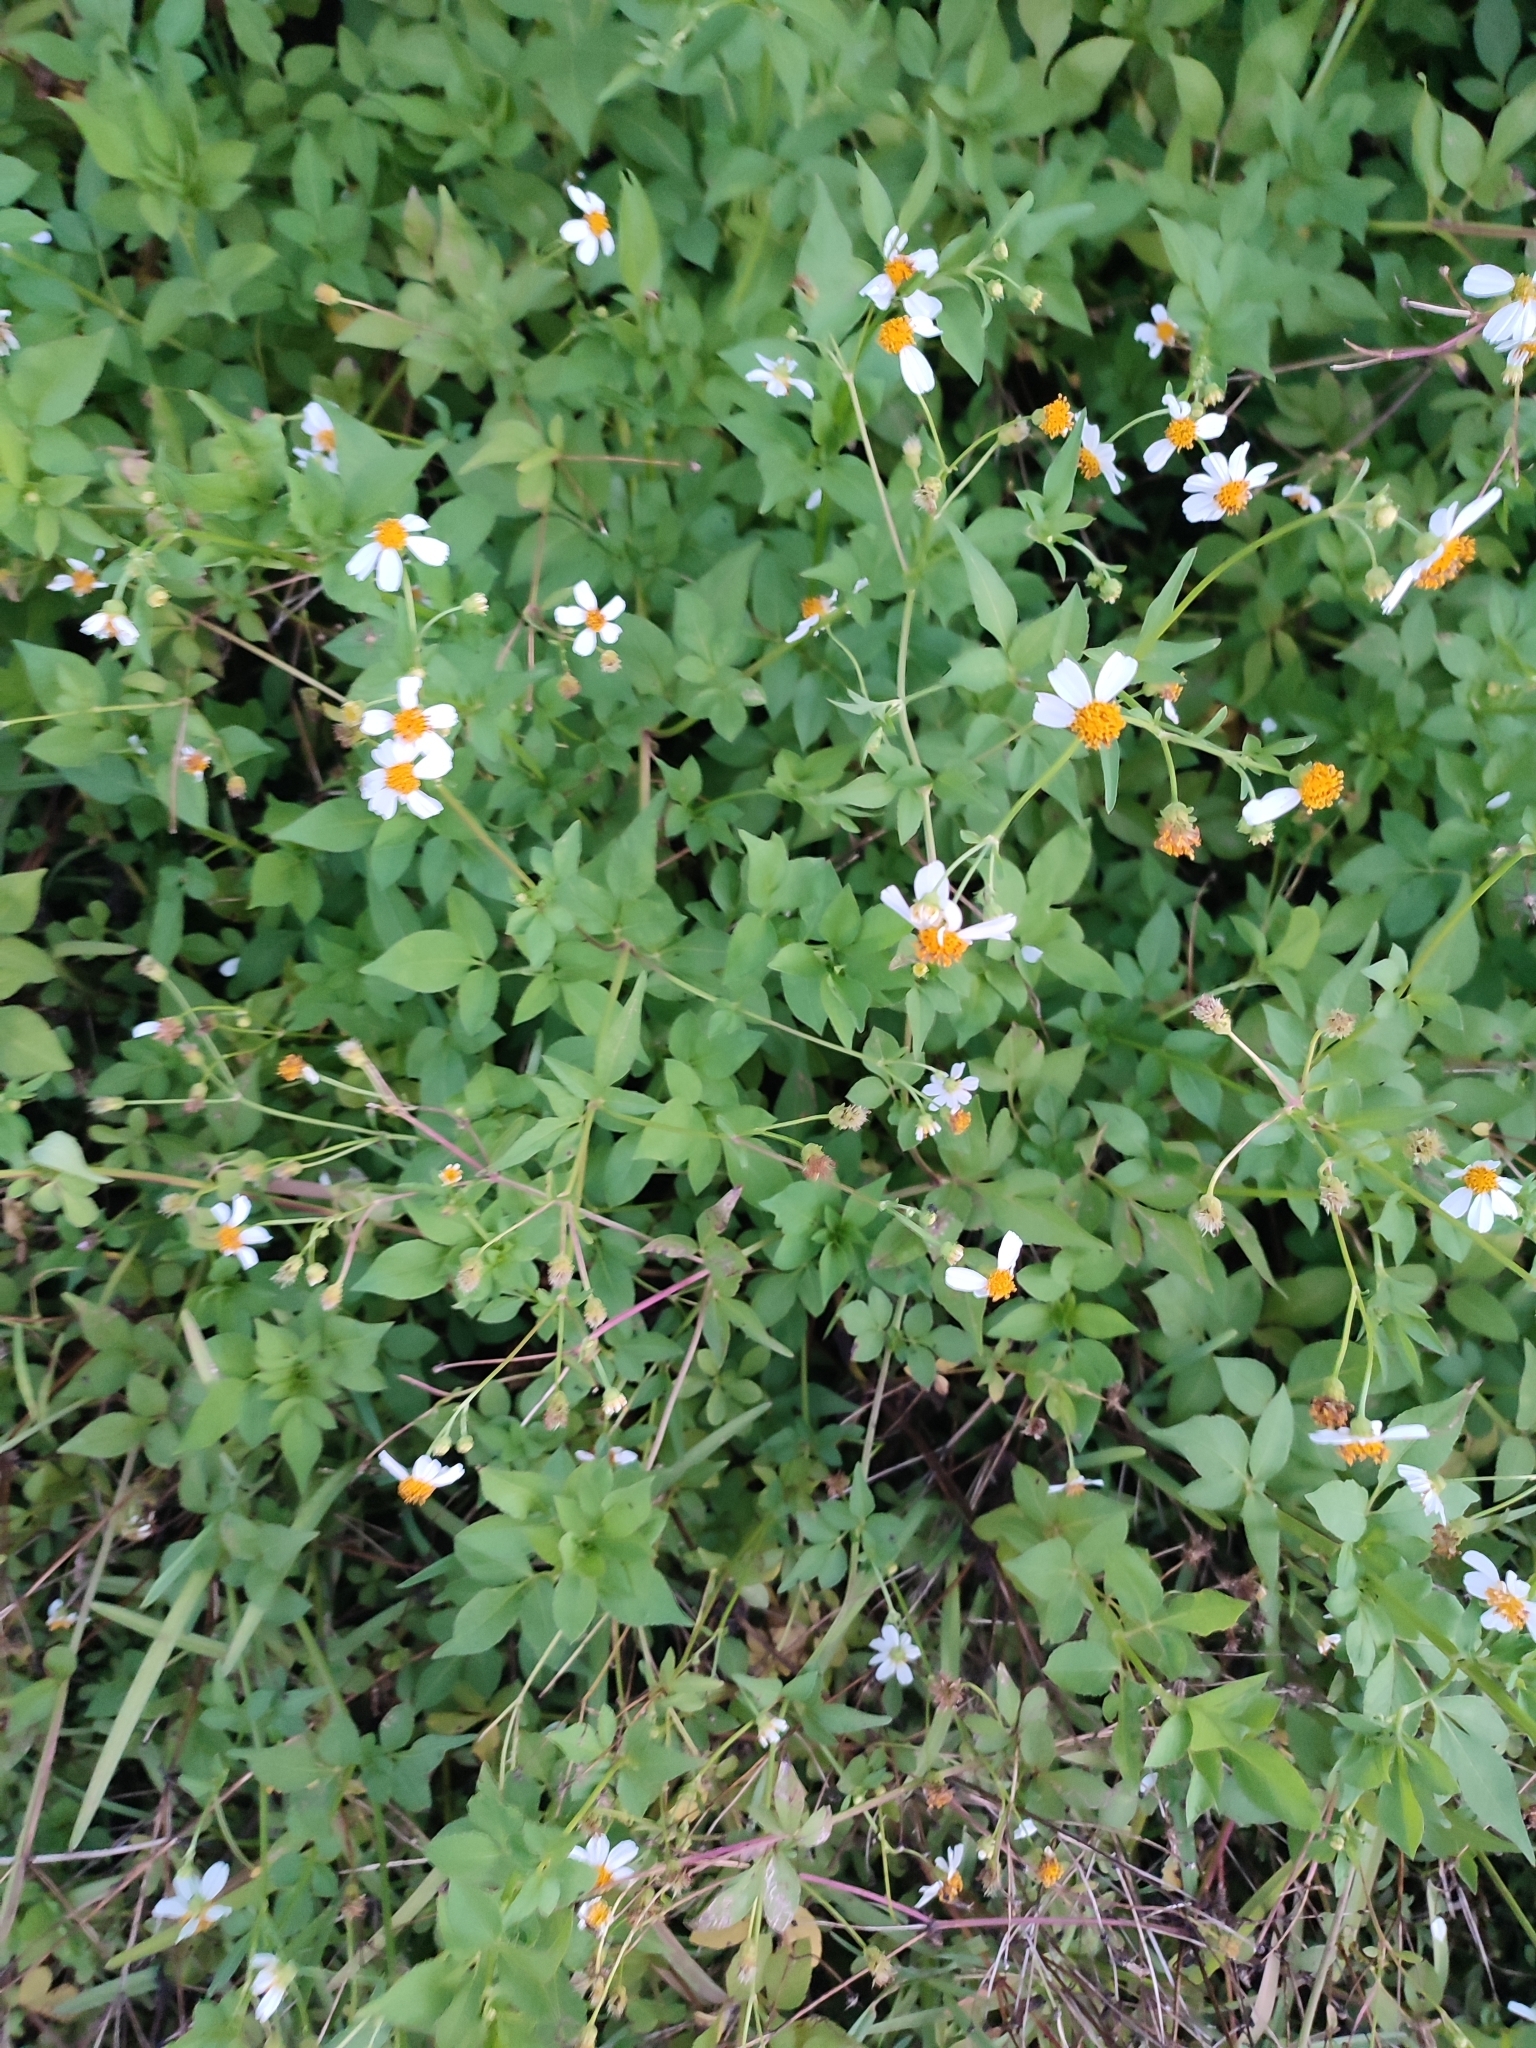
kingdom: Plantae
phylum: Tracheophyta
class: Magnoliopsida
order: Asterales
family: Asteraceae
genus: Bidens
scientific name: Bidens alba
